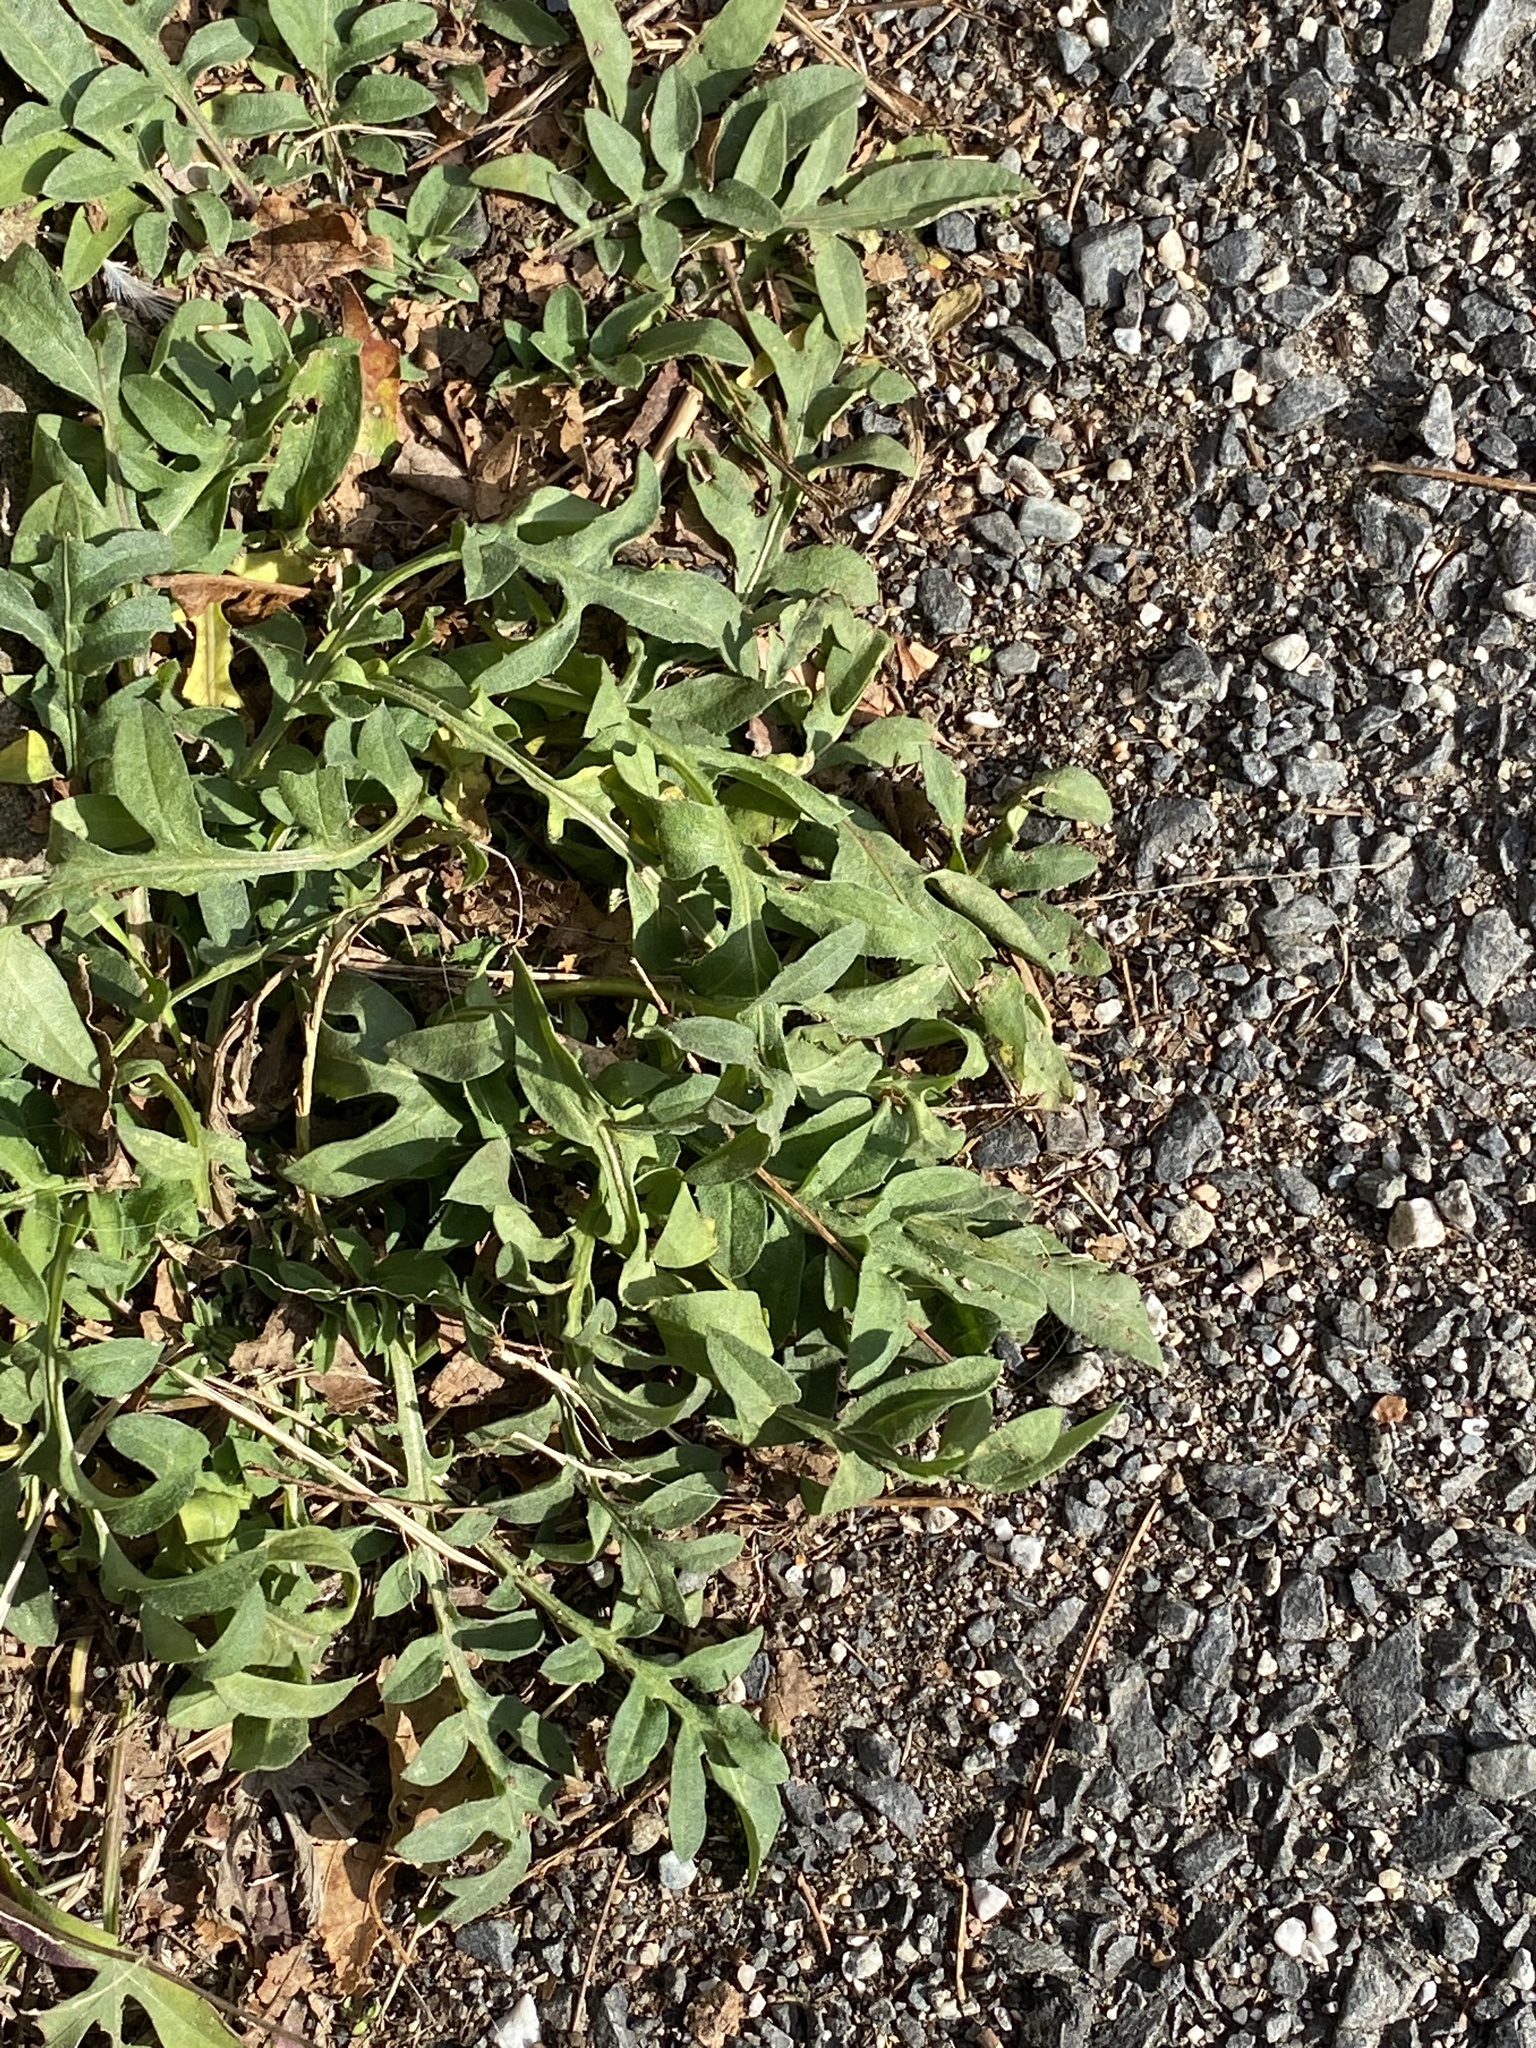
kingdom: Plantae
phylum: Tracheophyta
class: Magnoliopsida
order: Asterales
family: Asteraceae
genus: Centaurea
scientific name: Centaurea stoebe
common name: Spotted knapweed
